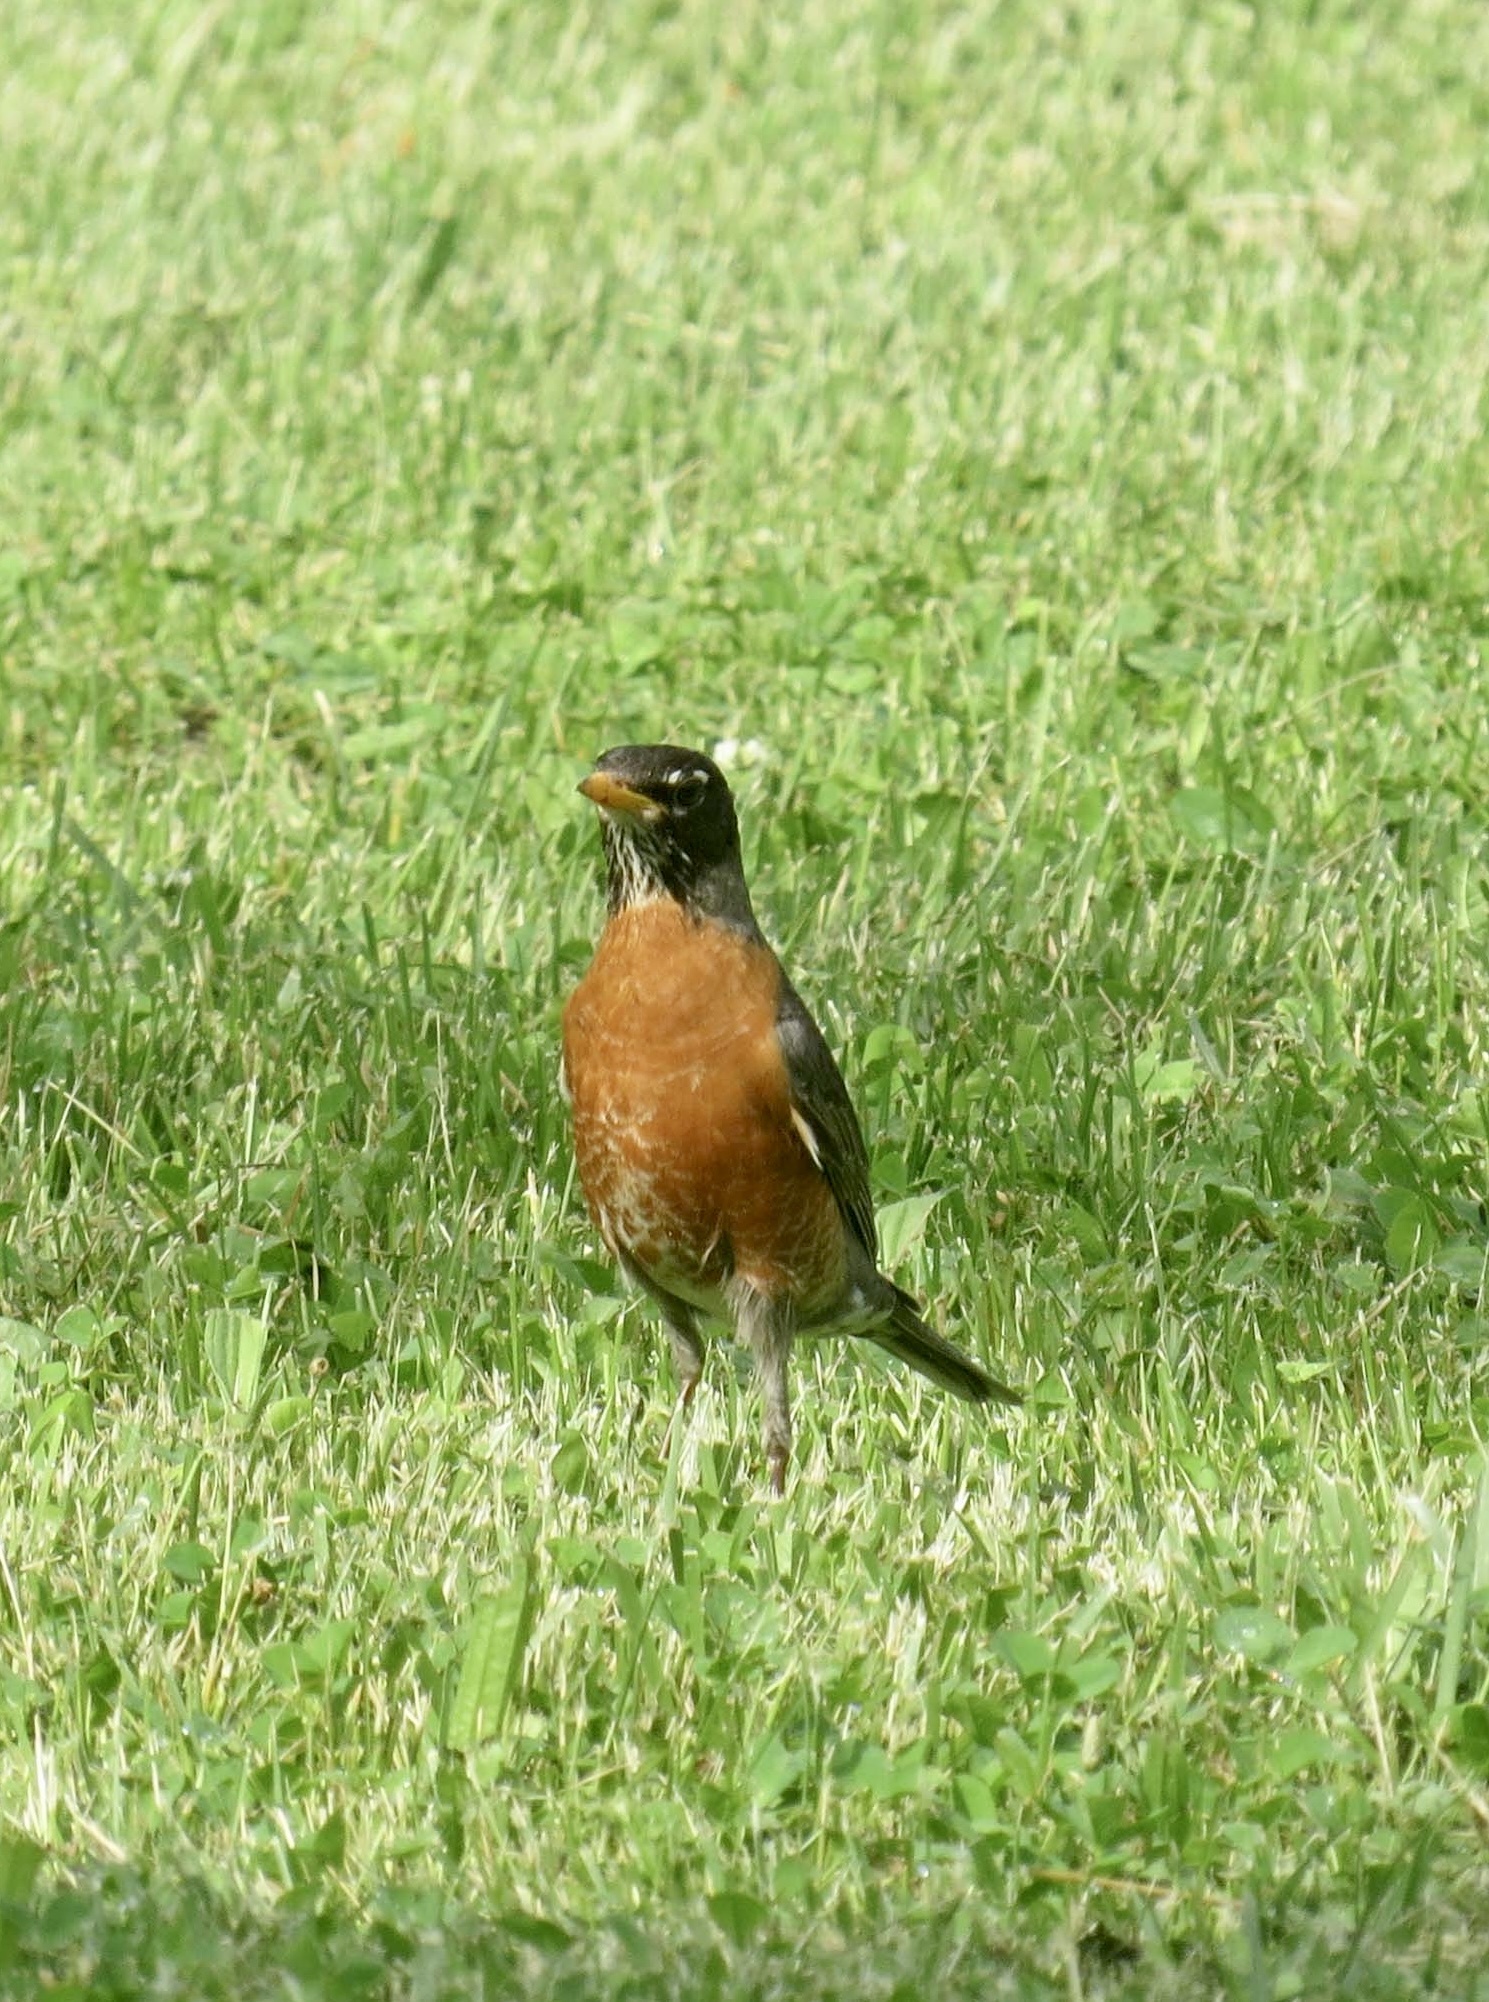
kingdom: Animalia
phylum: Chordata
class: Aves
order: Passeriformes
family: Turdidae
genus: Turdus
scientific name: Turdus migratorius
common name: American robin
